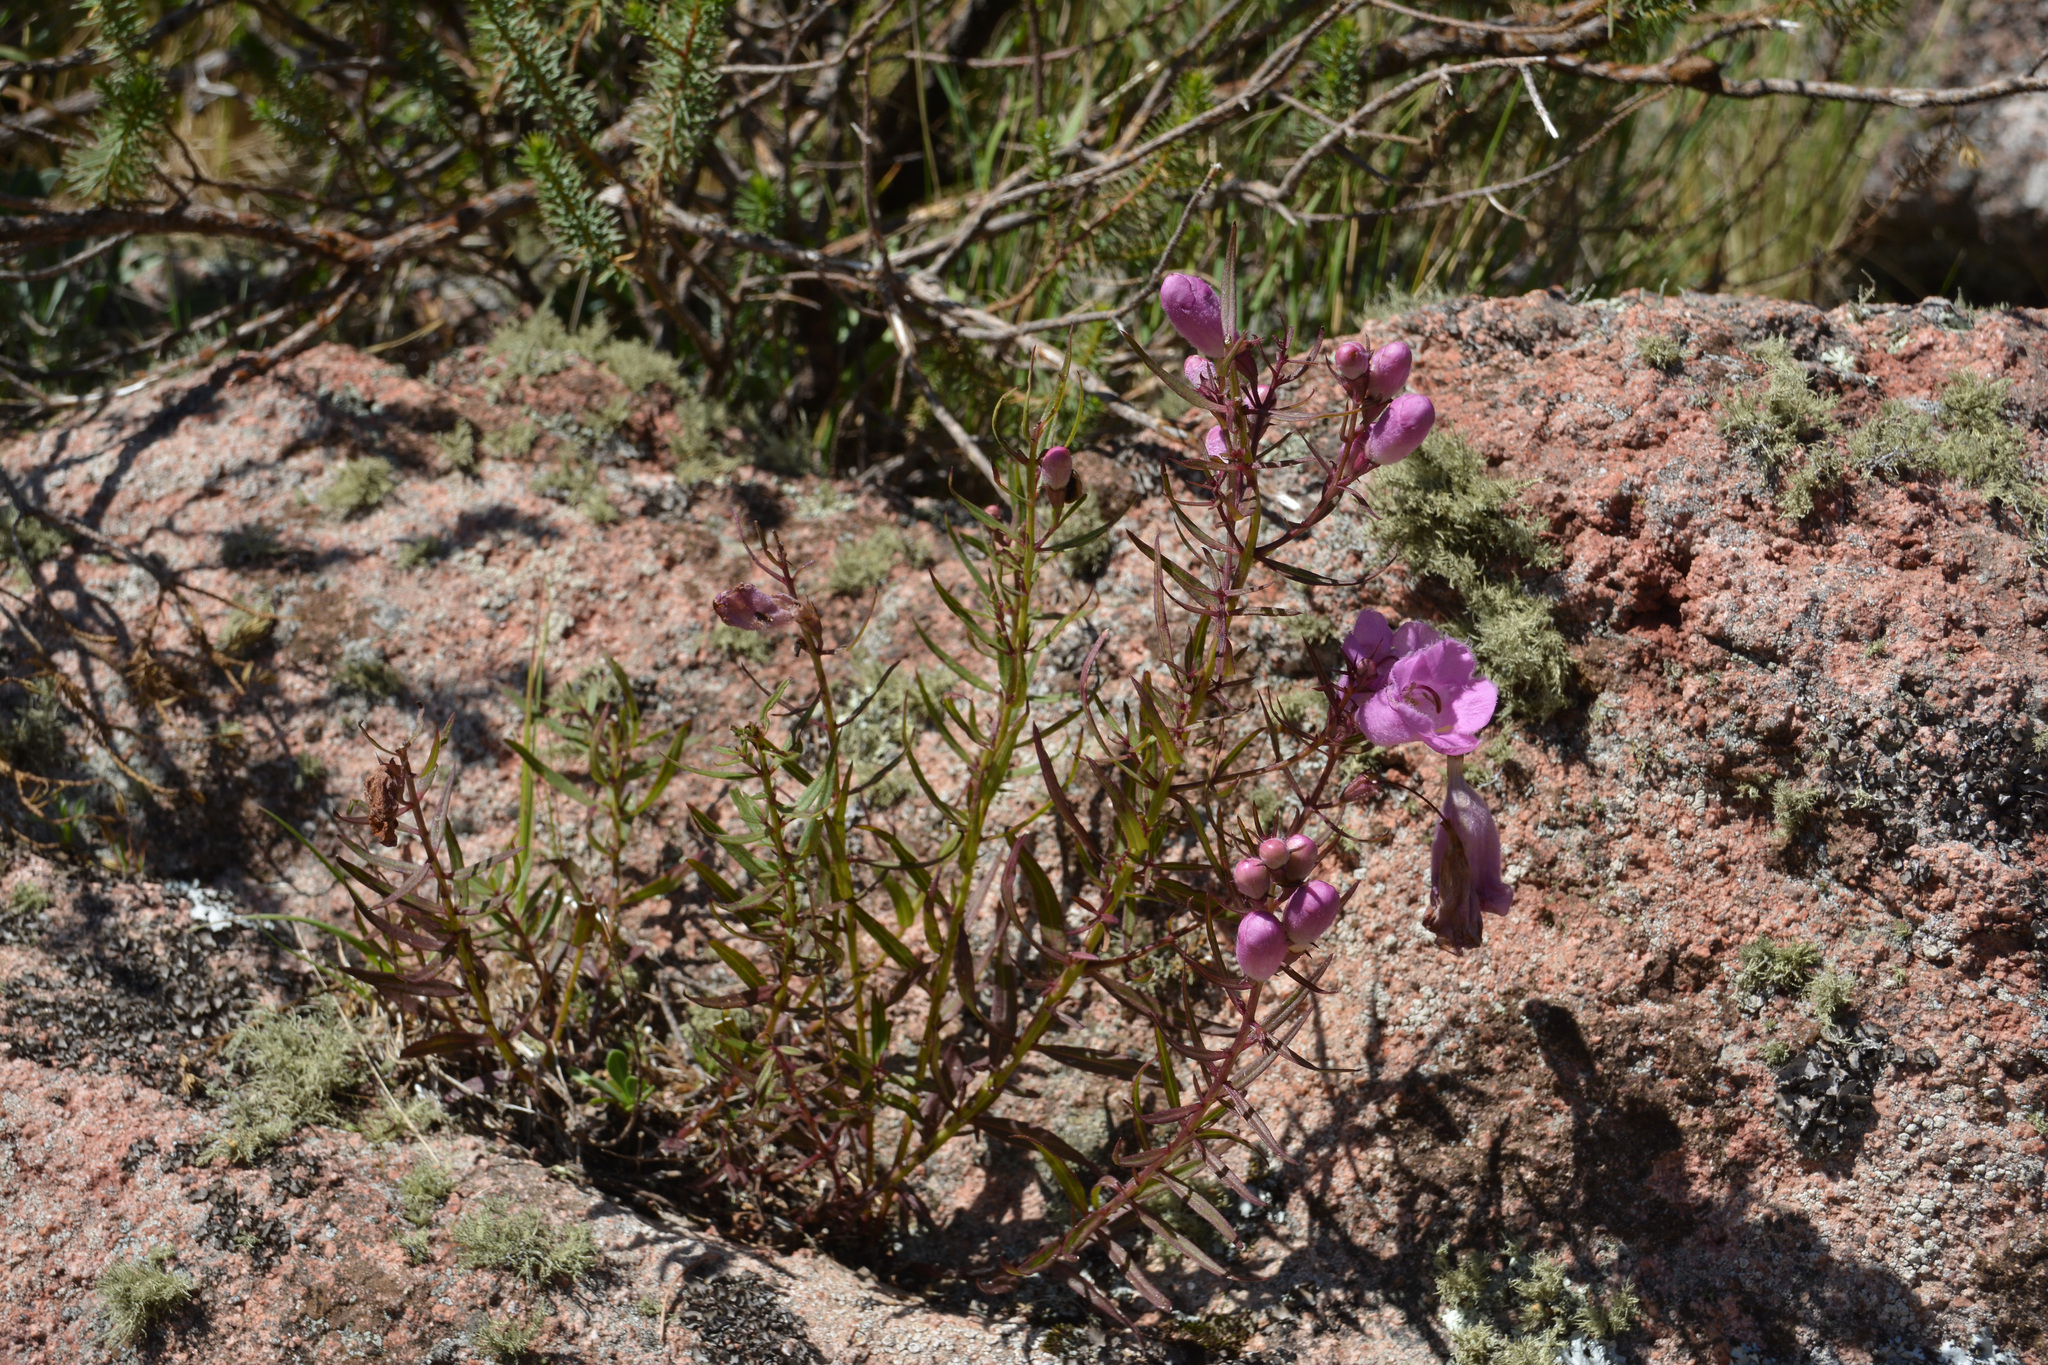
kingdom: Plantae
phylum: Tracheophyta
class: Magnoliopsida
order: Lamiales
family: Orobanchaceae
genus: Agalinis
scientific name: Agalinis genistifolia
